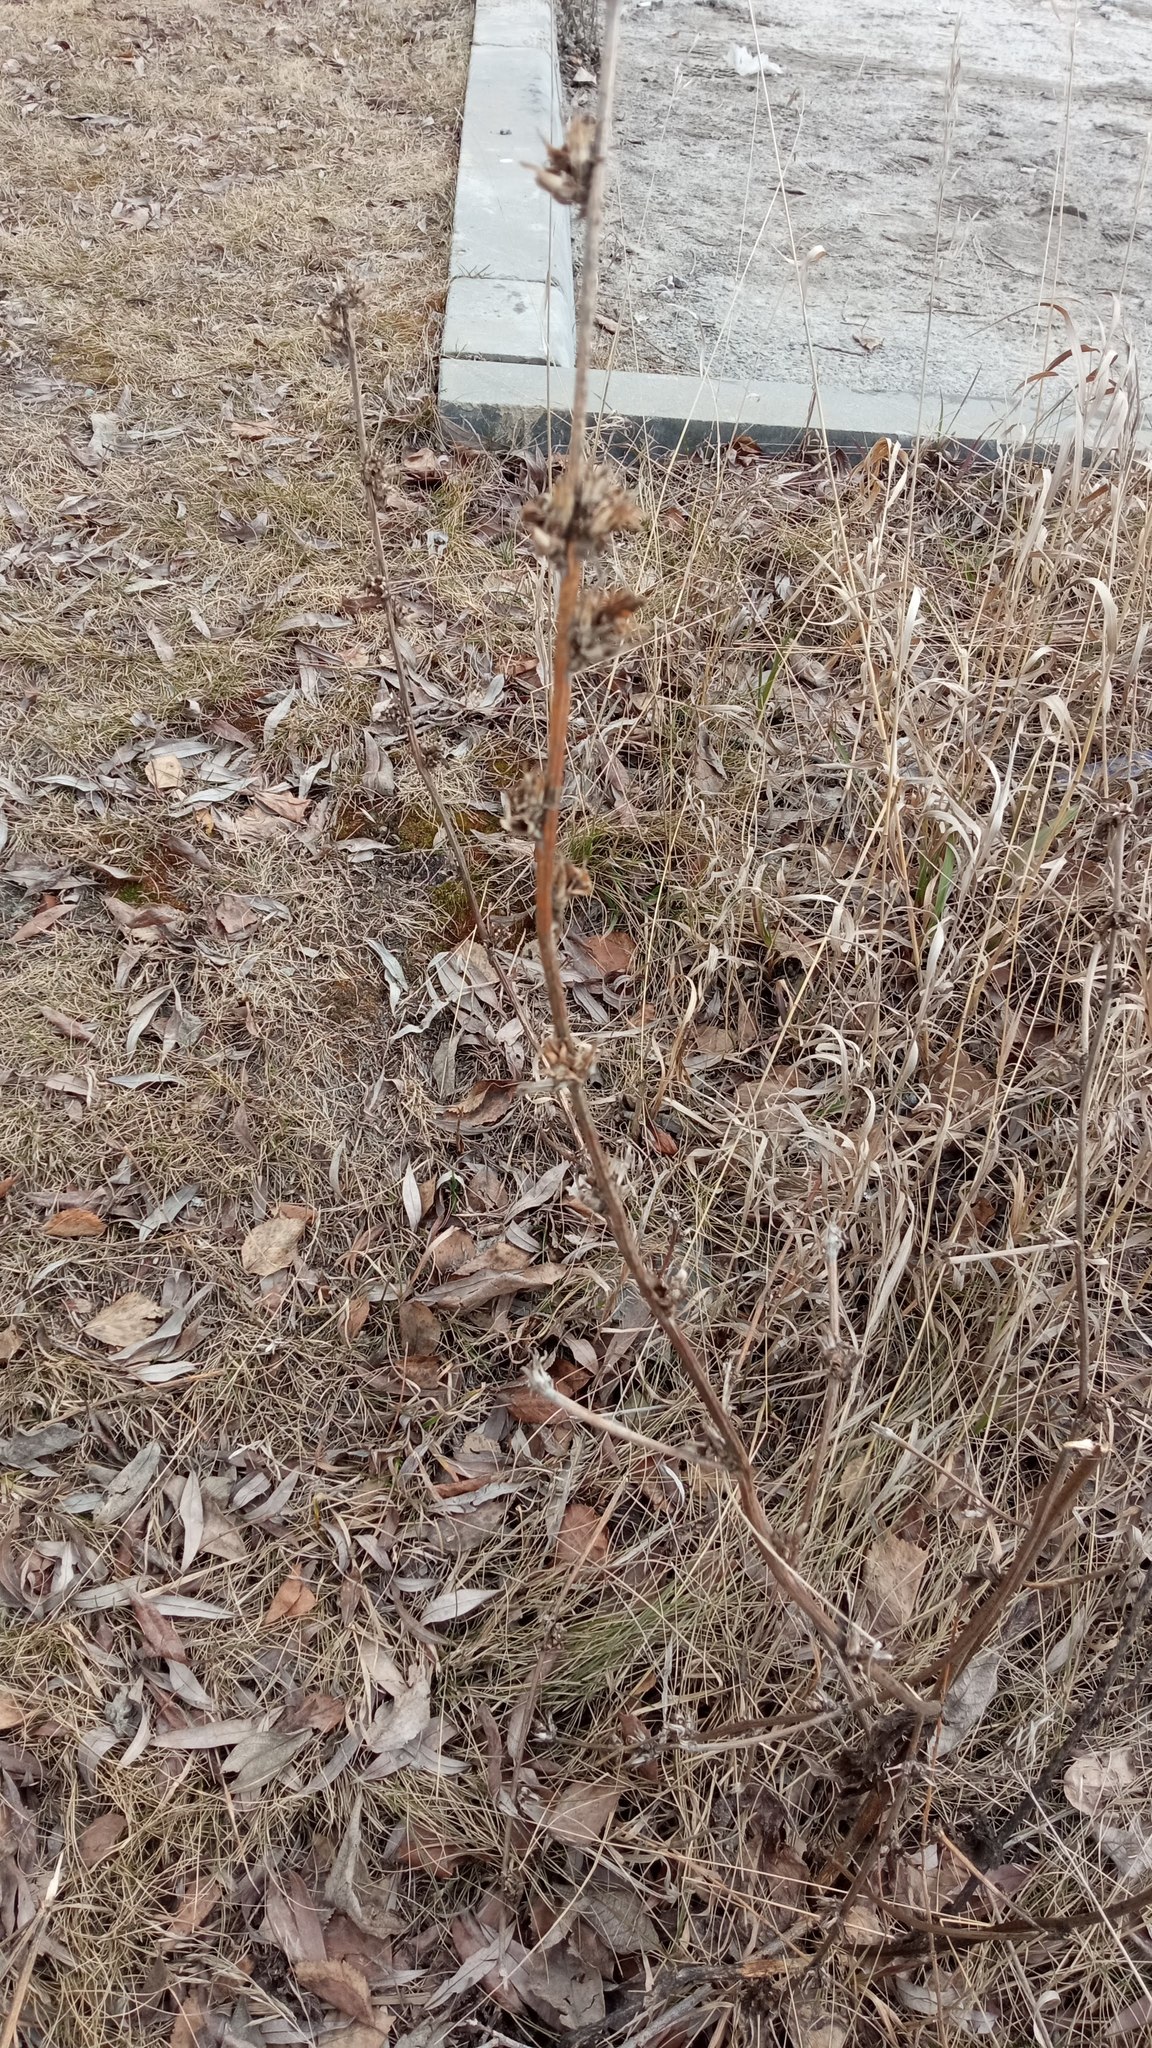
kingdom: Plantae
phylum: Tracheophyta
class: Magnoliopsida
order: Asterales
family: Asteraceae
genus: Cichorium
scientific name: Cichorium intybus
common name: Chicory
